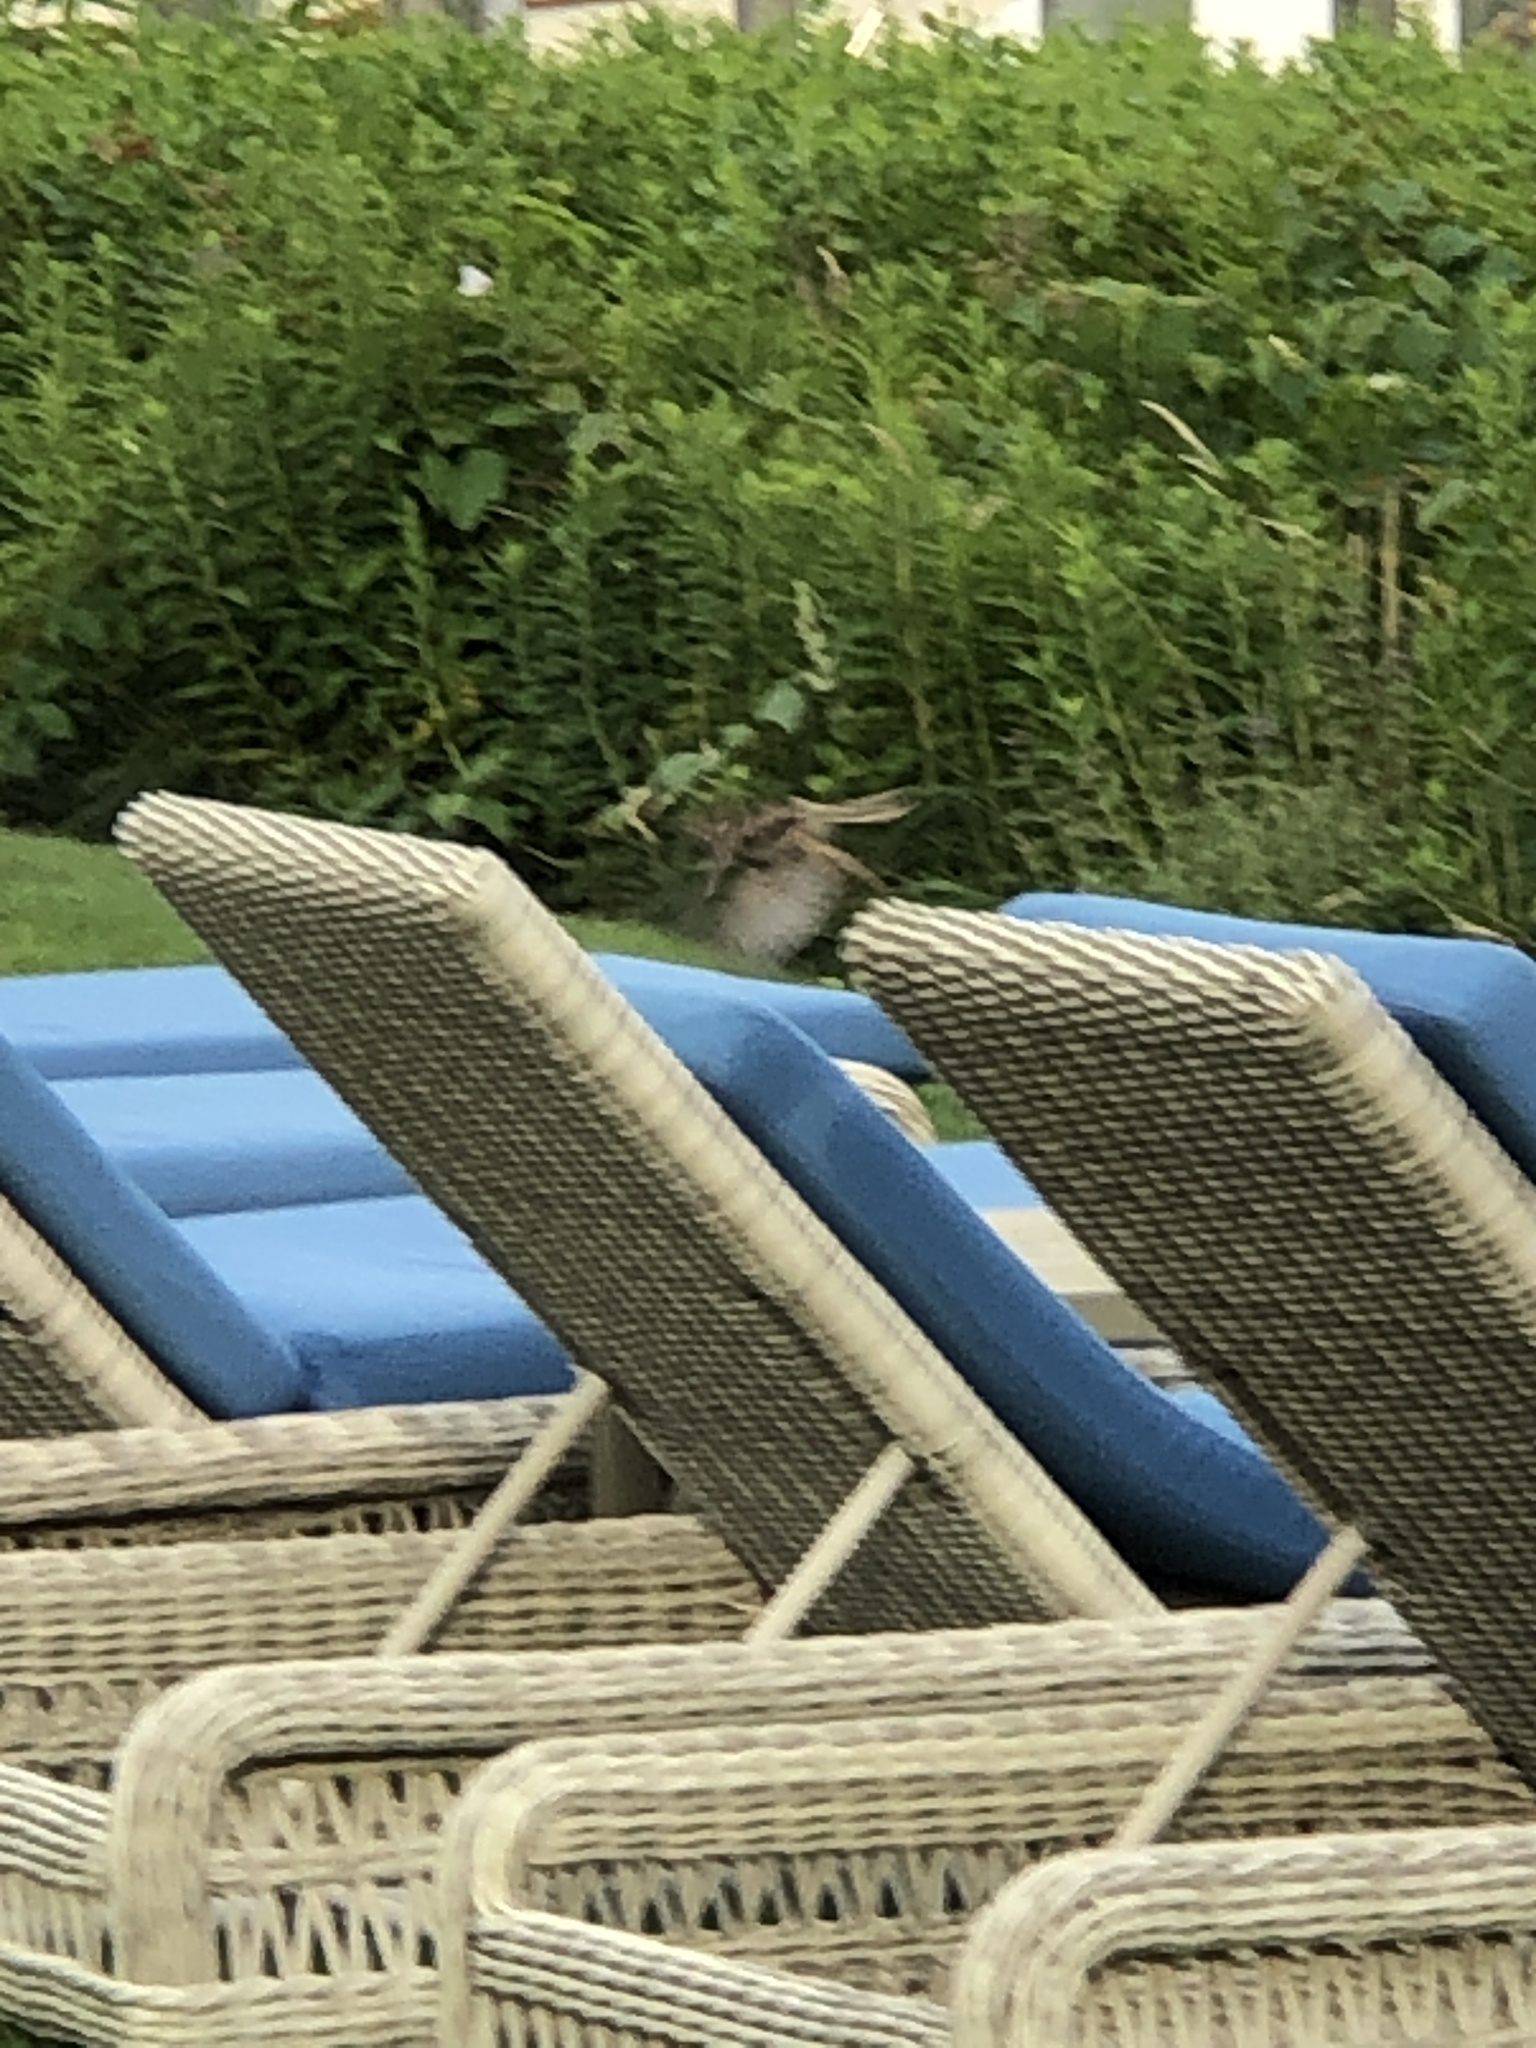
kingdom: Animalia
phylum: Chordata
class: Aves
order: Passeriformes
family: Passerellidae
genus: Melospiza
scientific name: Melospiza melodia
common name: Song sparrow
